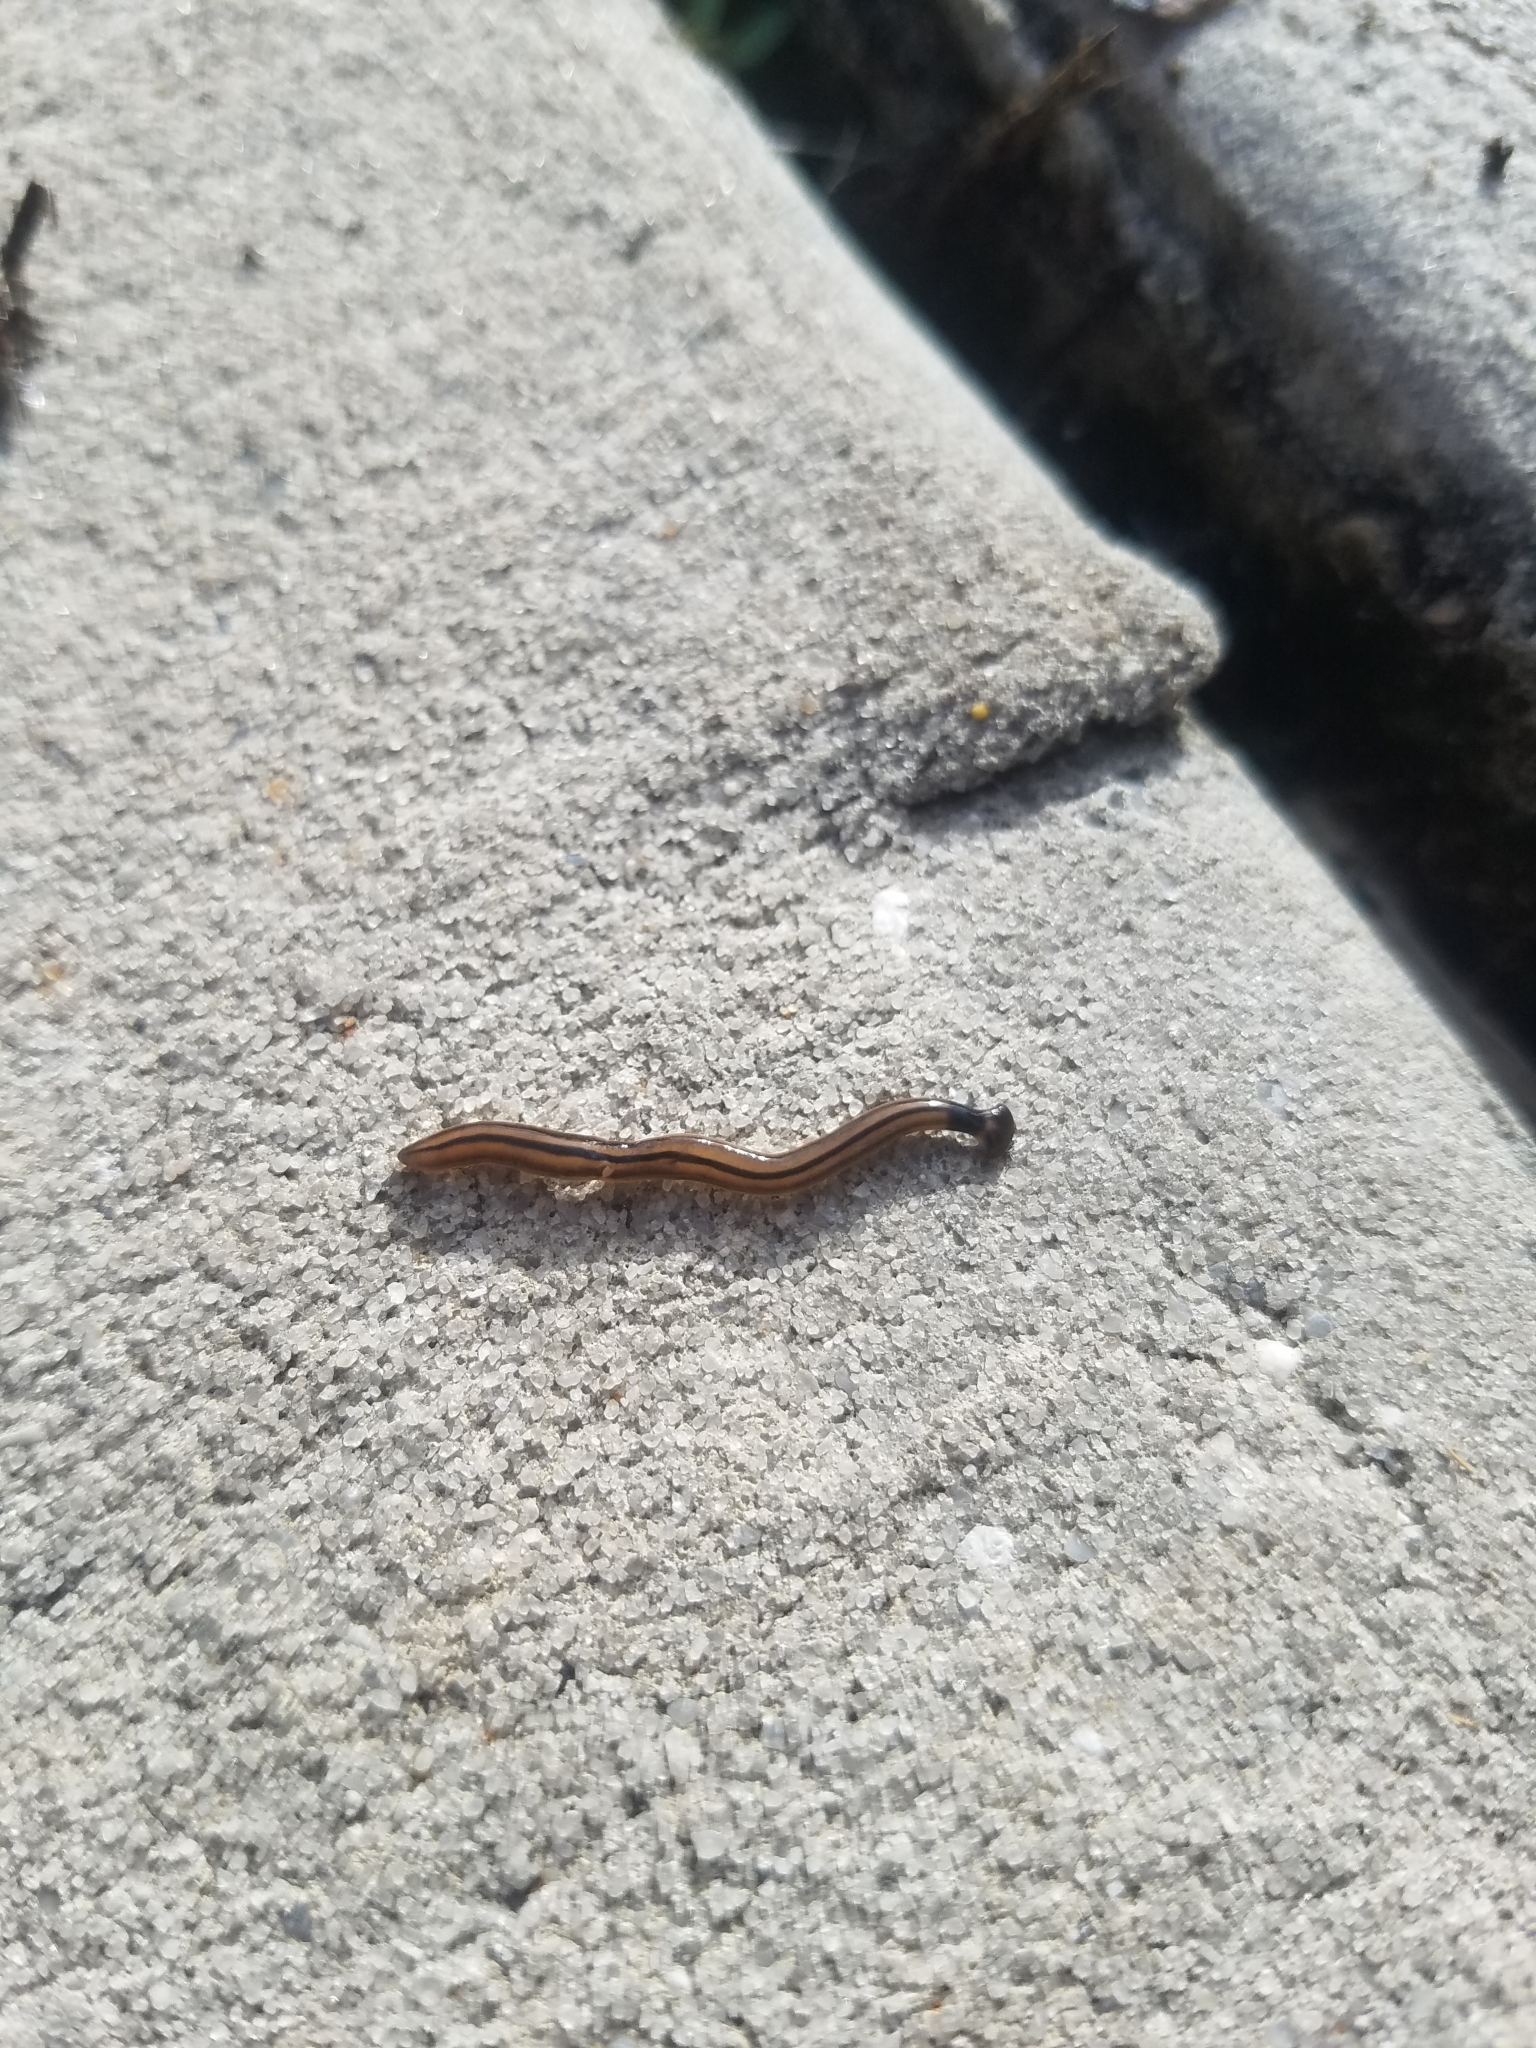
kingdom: Animalia
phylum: Platyhelminthes
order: Tricladida
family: Geoplanidae
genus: Bipalium
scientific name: Bipalium vagum
